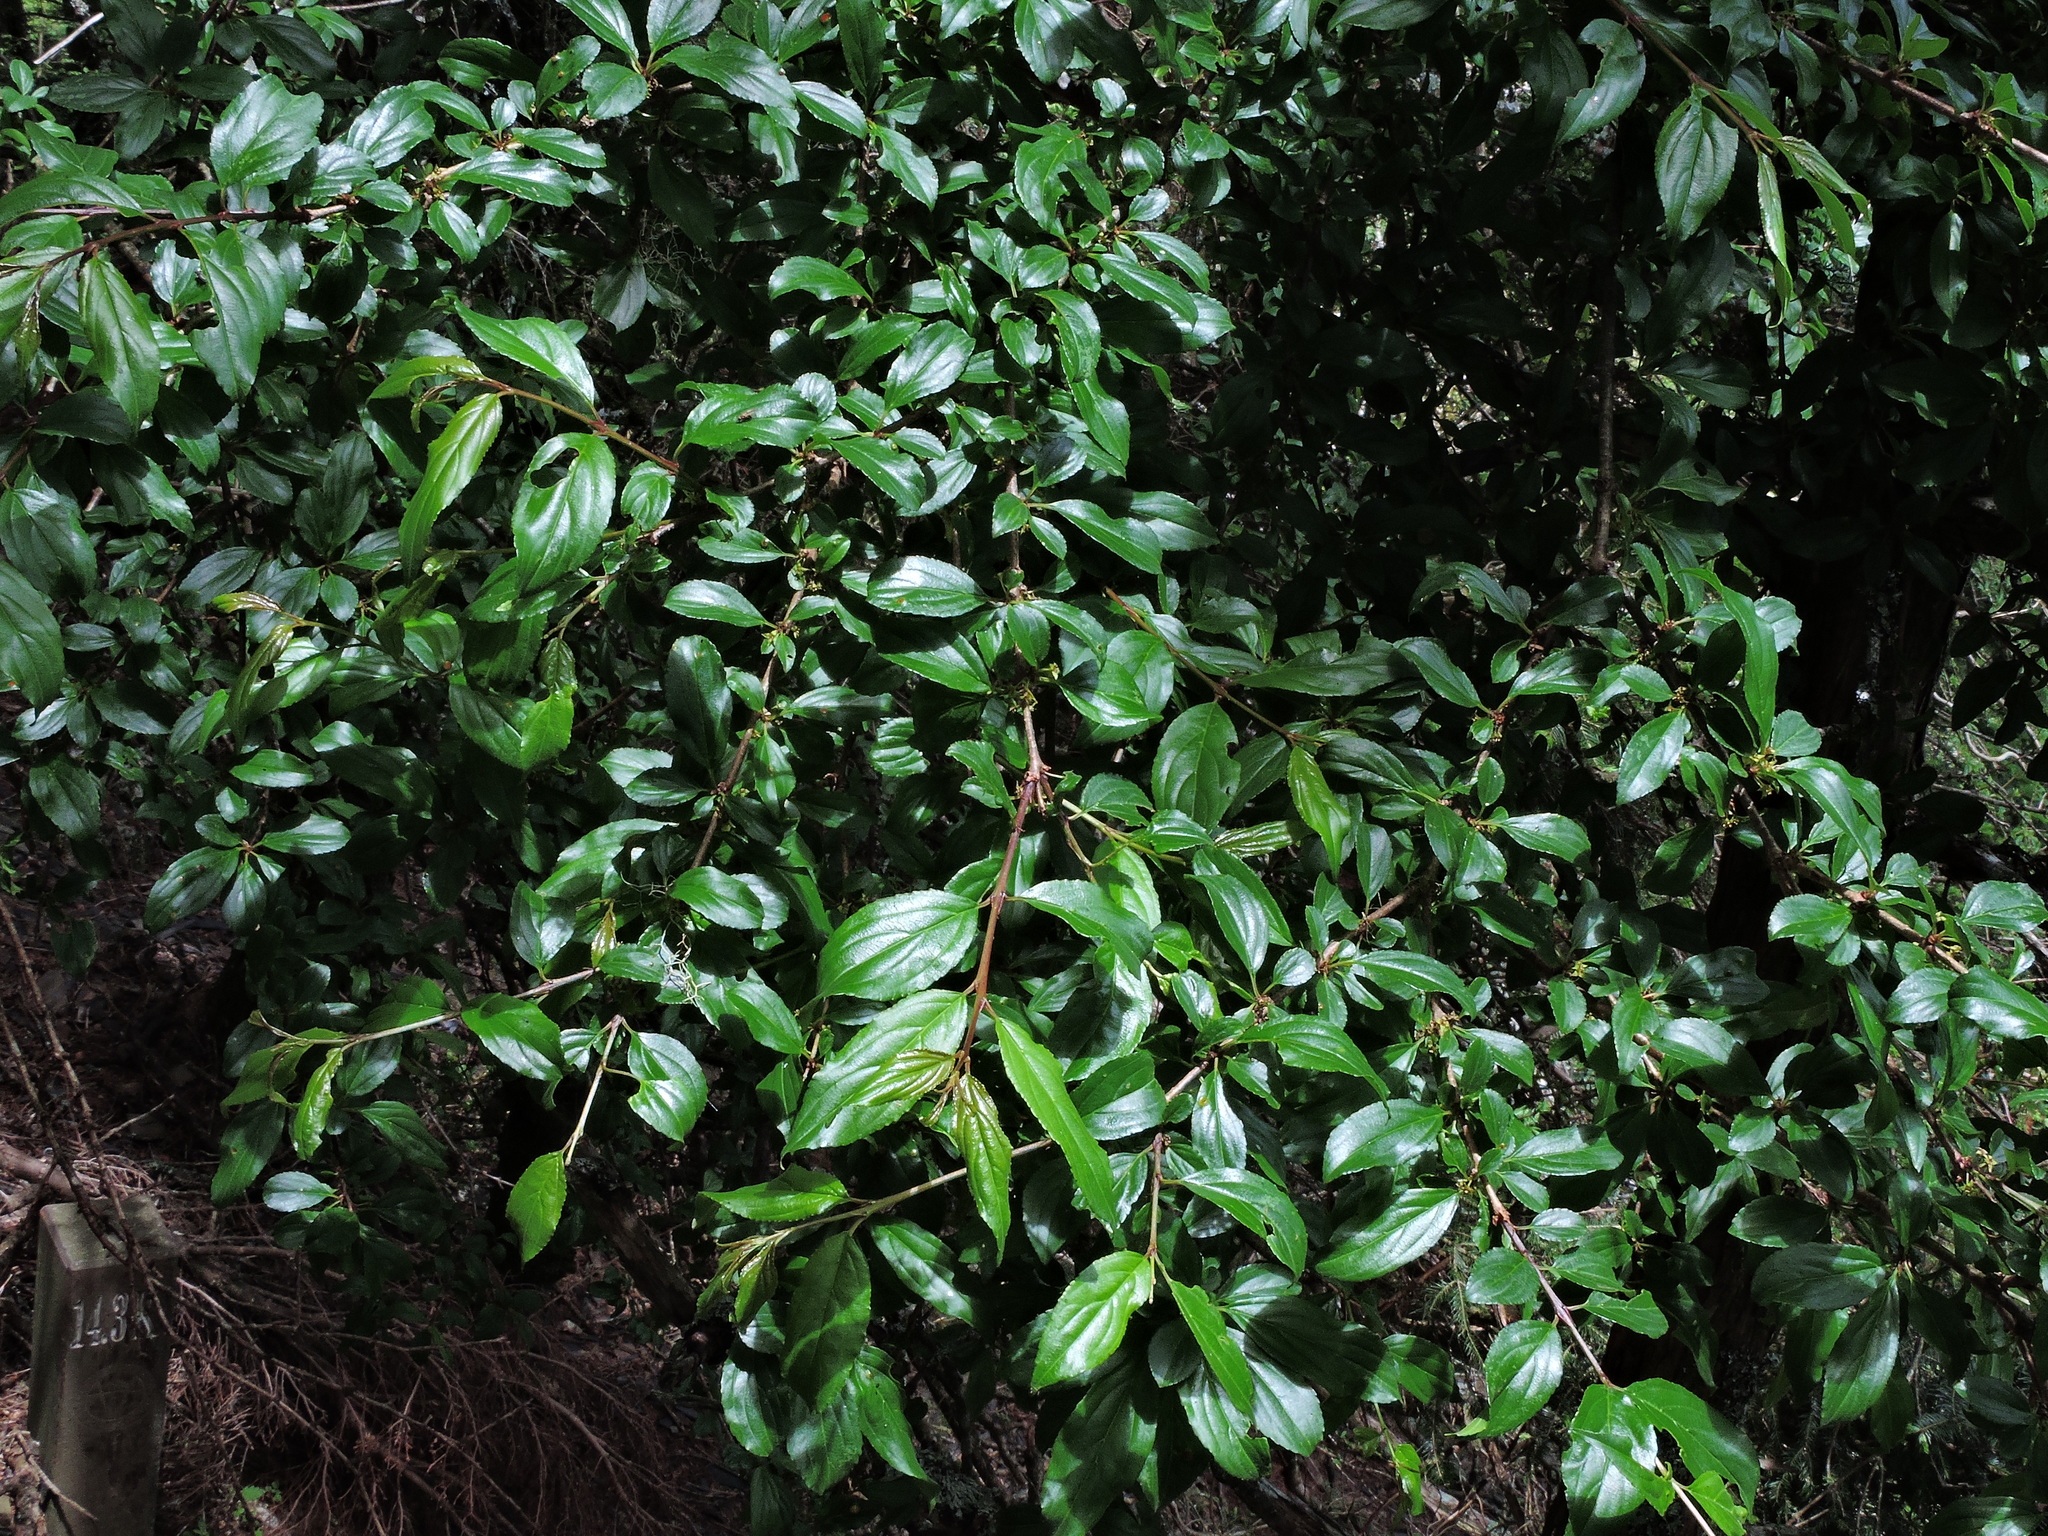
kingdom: Plantae
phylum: Tracheophyta
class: Magnoliopsida
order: Rosales
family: Rhamnaceae
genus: Rhamnus
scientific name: Rhamnus pilushanensis
